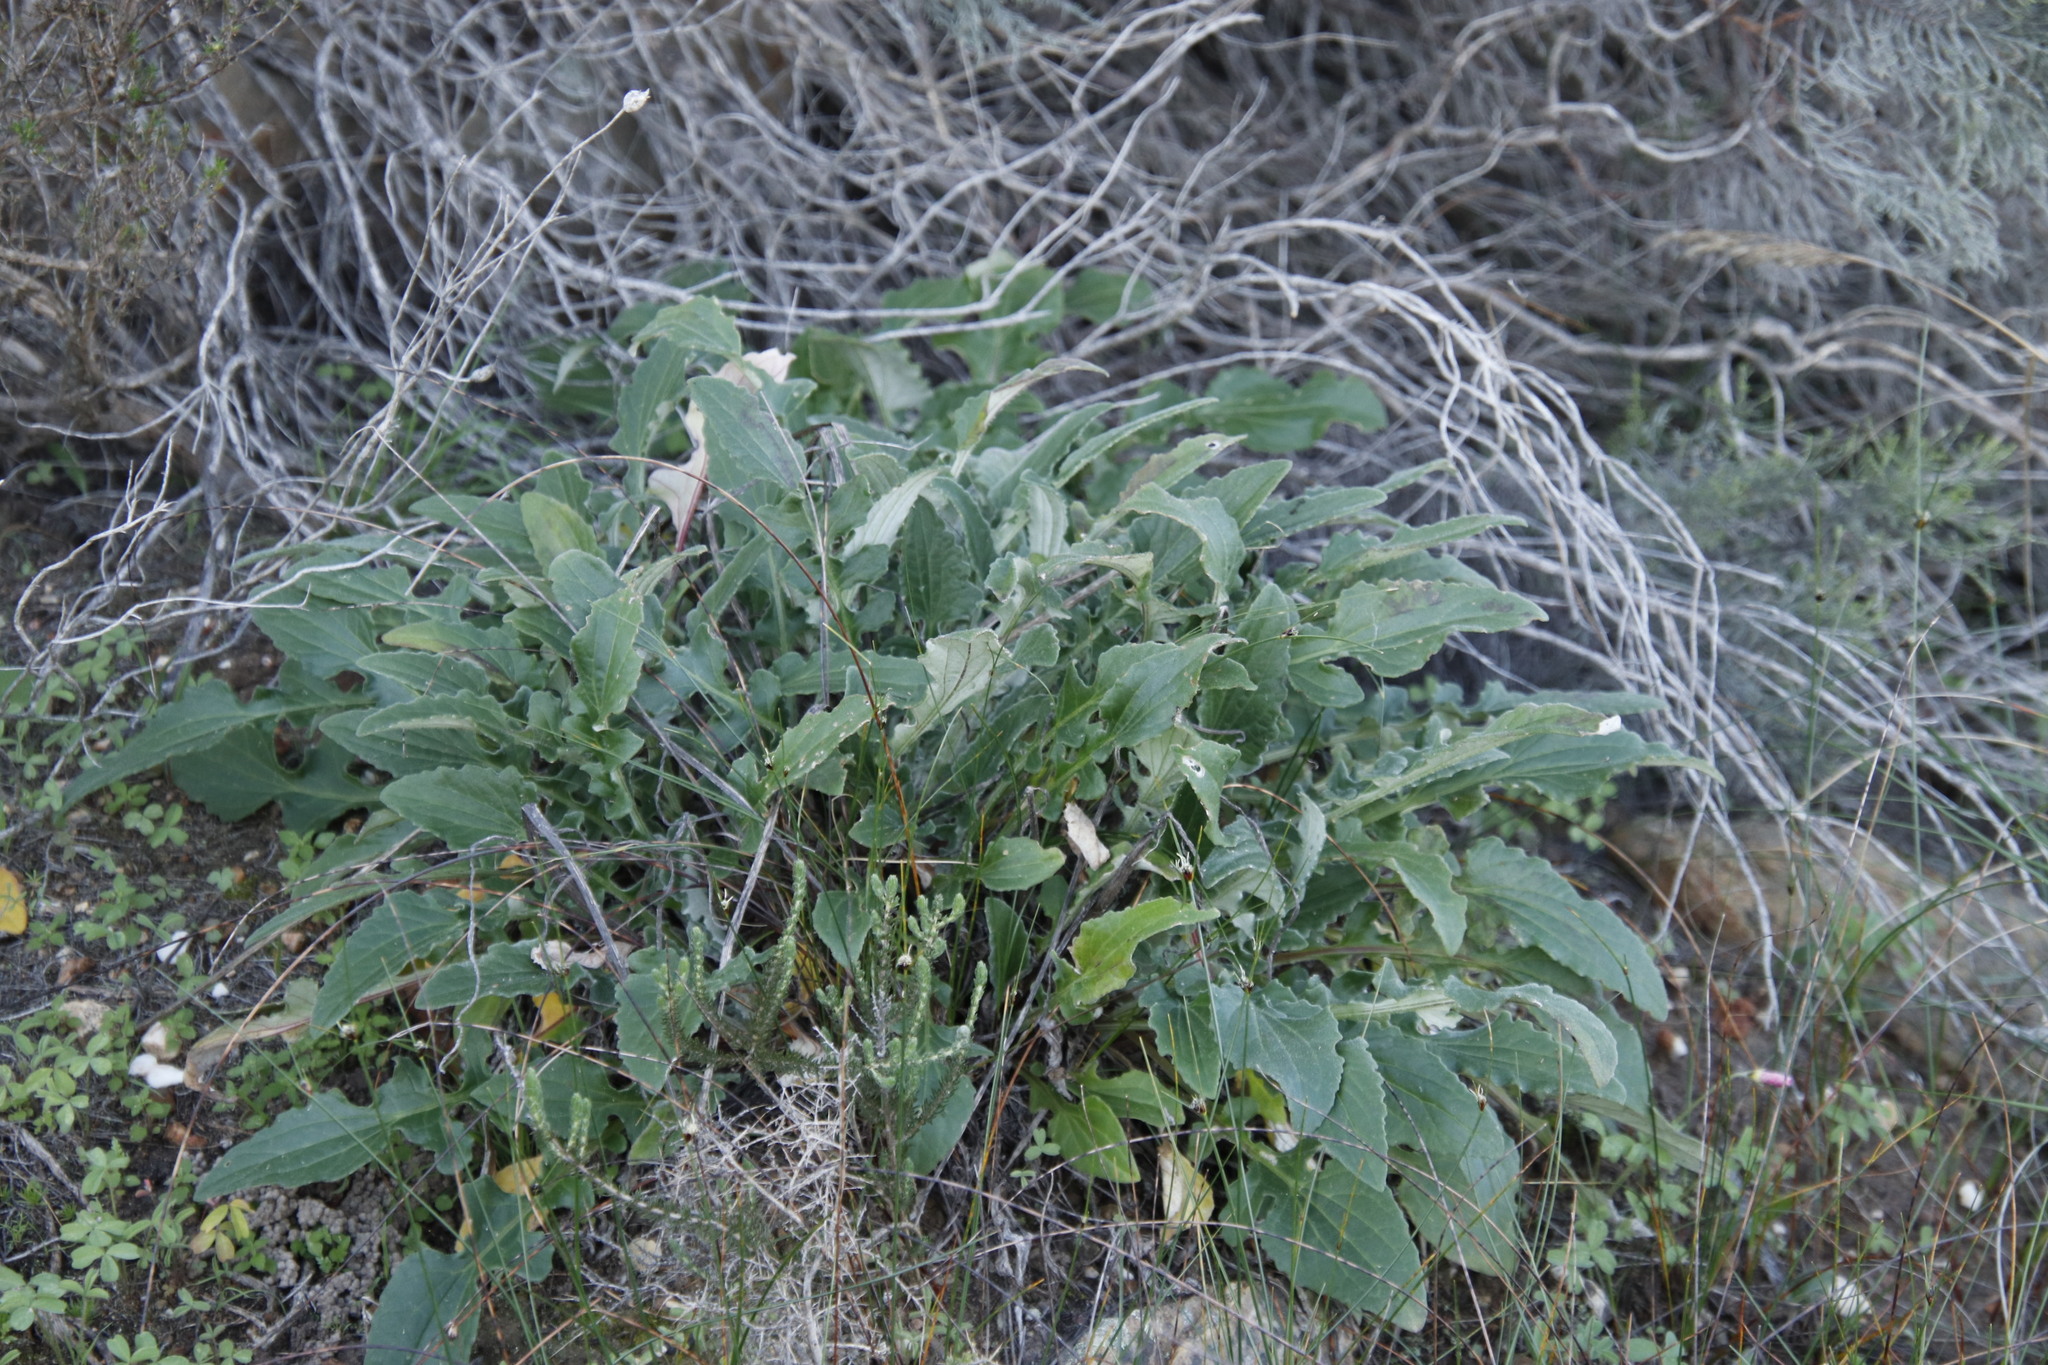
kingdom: Plantae
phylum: Tracheophyta
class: Magnoliopsida
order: Asterales
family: Asteraceae
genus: Arctotis
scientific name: Arctotis acaulis
